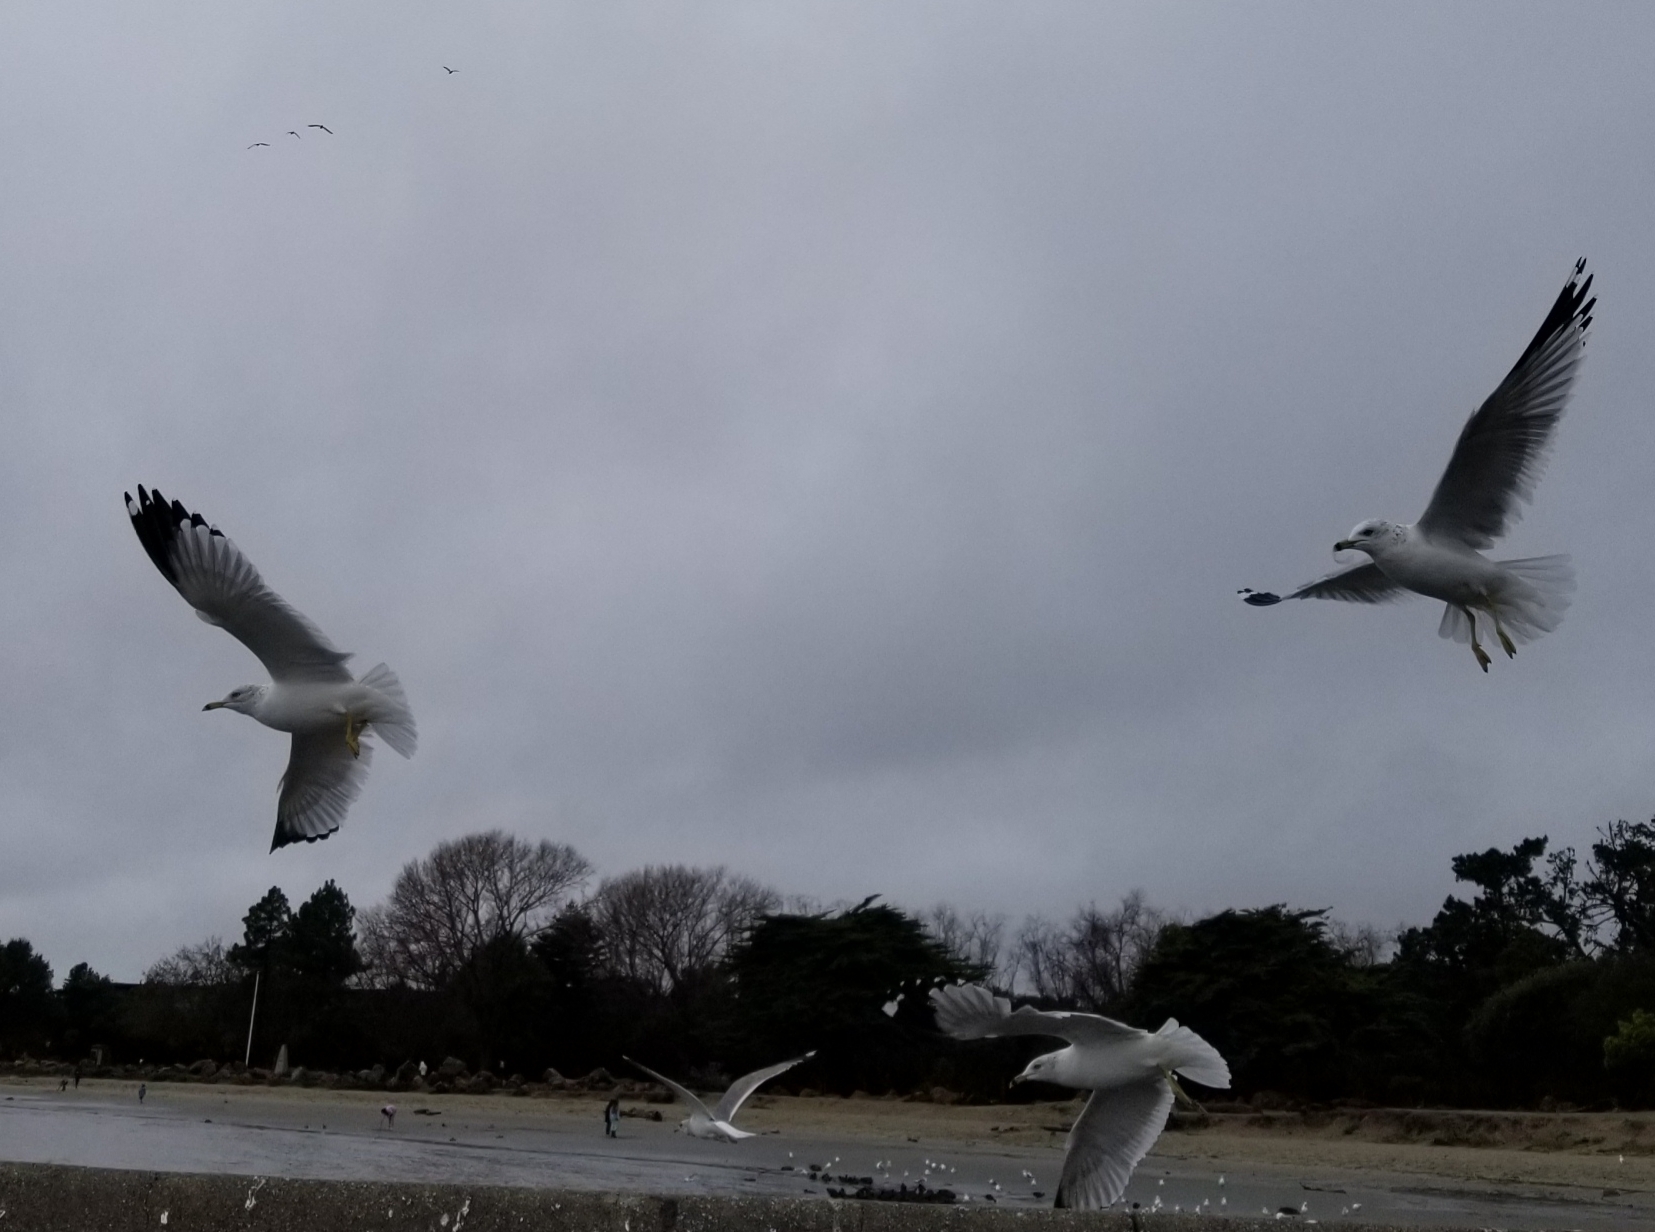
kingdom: Animalia
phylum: Chordata
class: Aves
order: Charadriiformes
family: Laridae
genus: Larus
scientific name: Larus delawarensis
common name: Ring-billed gull
